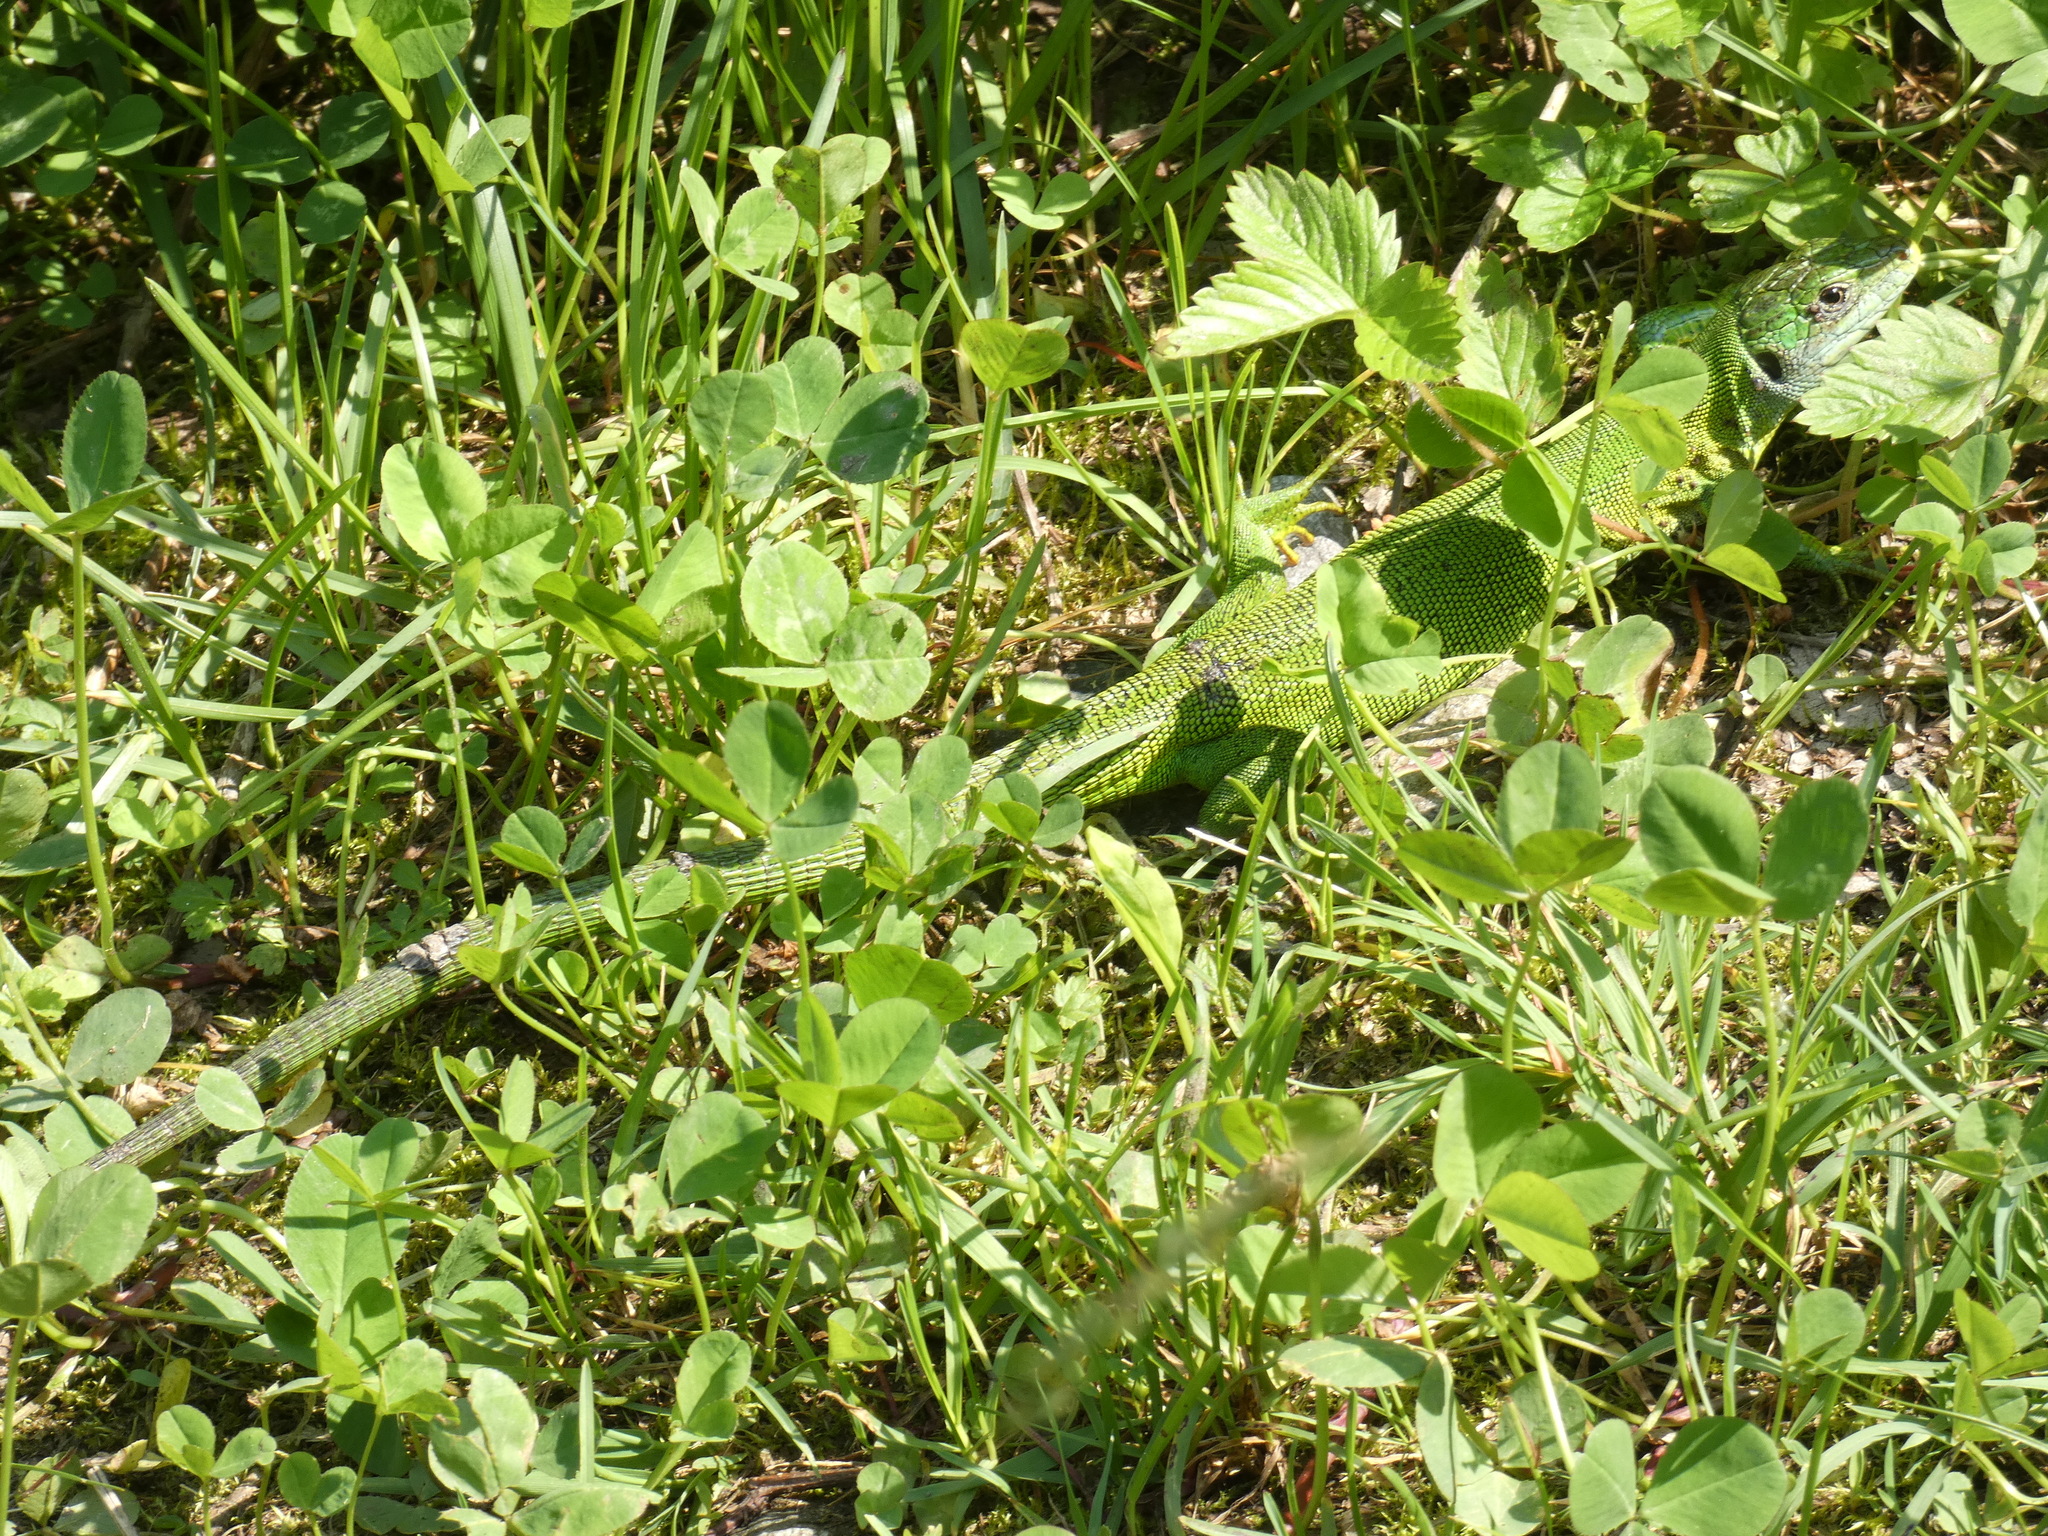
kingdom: Animalia
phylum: Chordata
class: Squamata
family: Lacertidae
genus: Lacerta
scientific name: Lacerta bilineata
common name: Western green lizard
